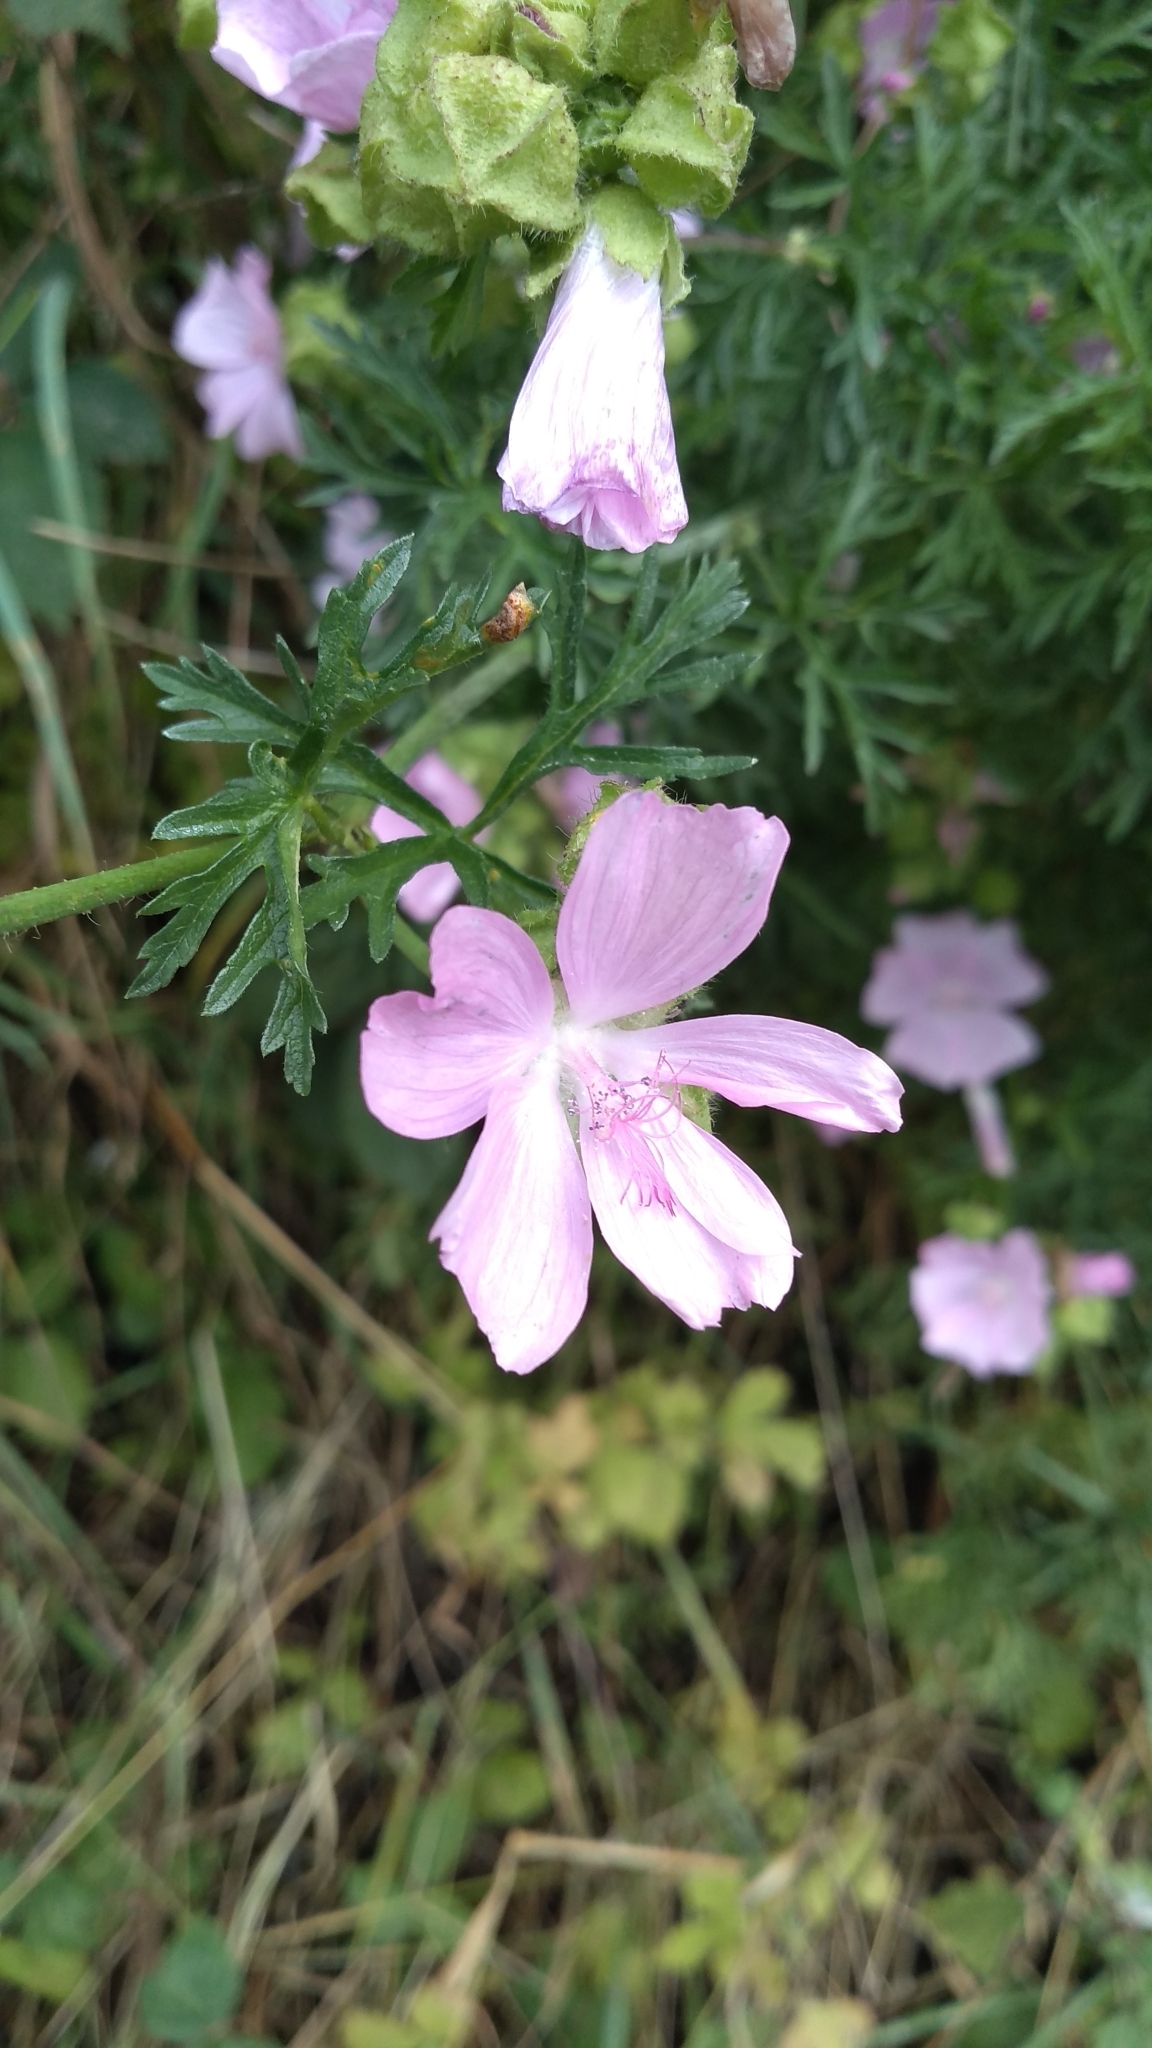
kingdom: Plantae
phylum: Tracheophyta
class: Magnoliopsida
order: Malvales
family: Malvaceae
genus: Malva
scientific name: Malva moschata
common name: Musk mallow
